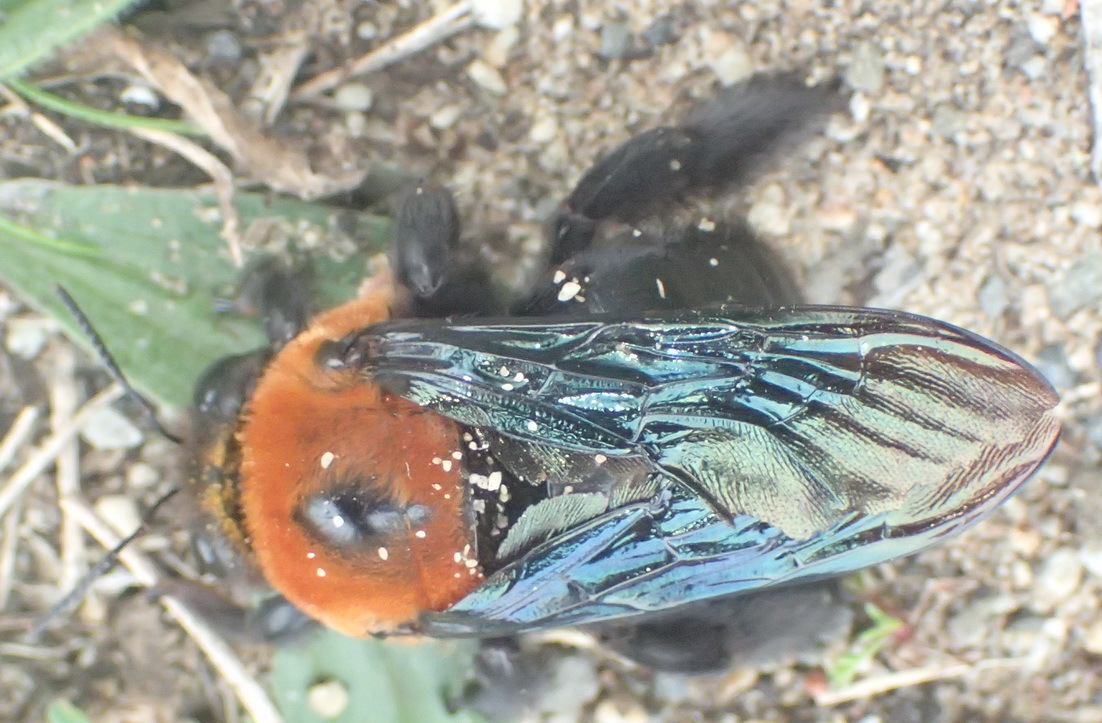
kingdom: Animalia
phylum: Arthropoda
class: Insecta
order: Hymenoptera
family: Apidae
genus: Xylocopa
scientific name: Xylocopa flavorufa
